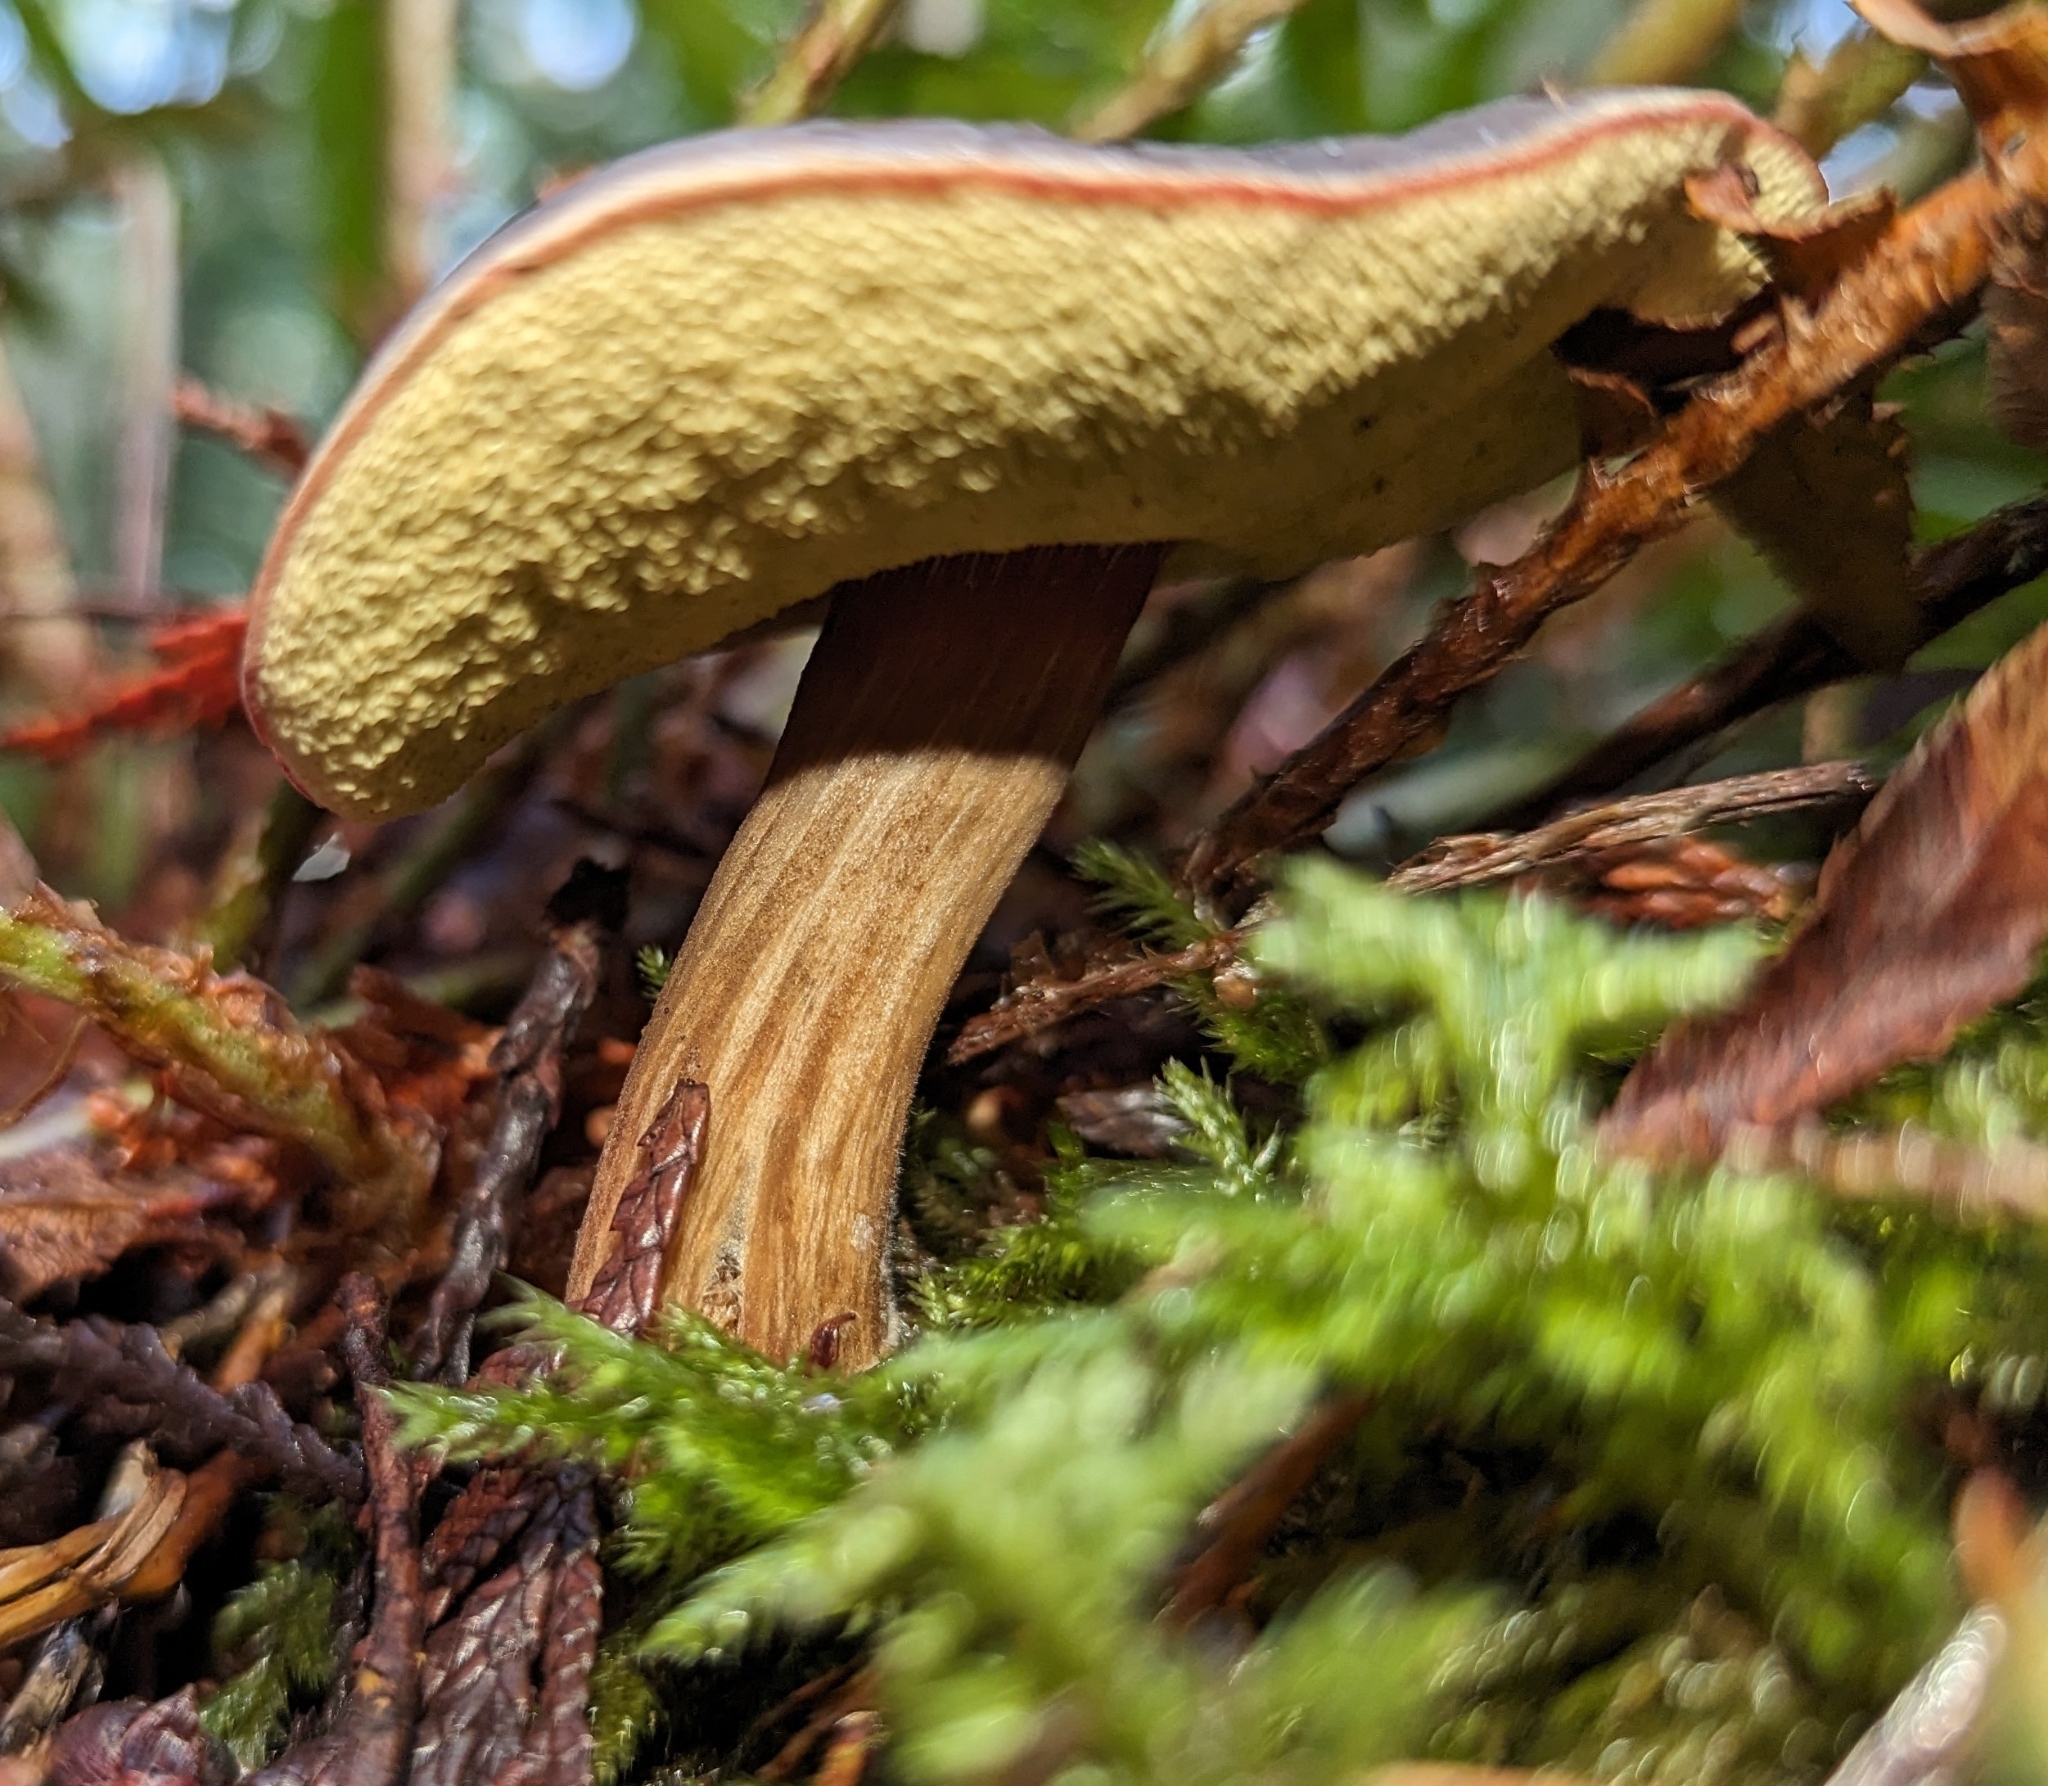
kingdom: Fungi
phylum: Basidiomycota
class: Agaricomycetes
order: Boletales
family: Boletaceae
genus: Xerocomellus
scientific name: Xerocomellus zelleri
